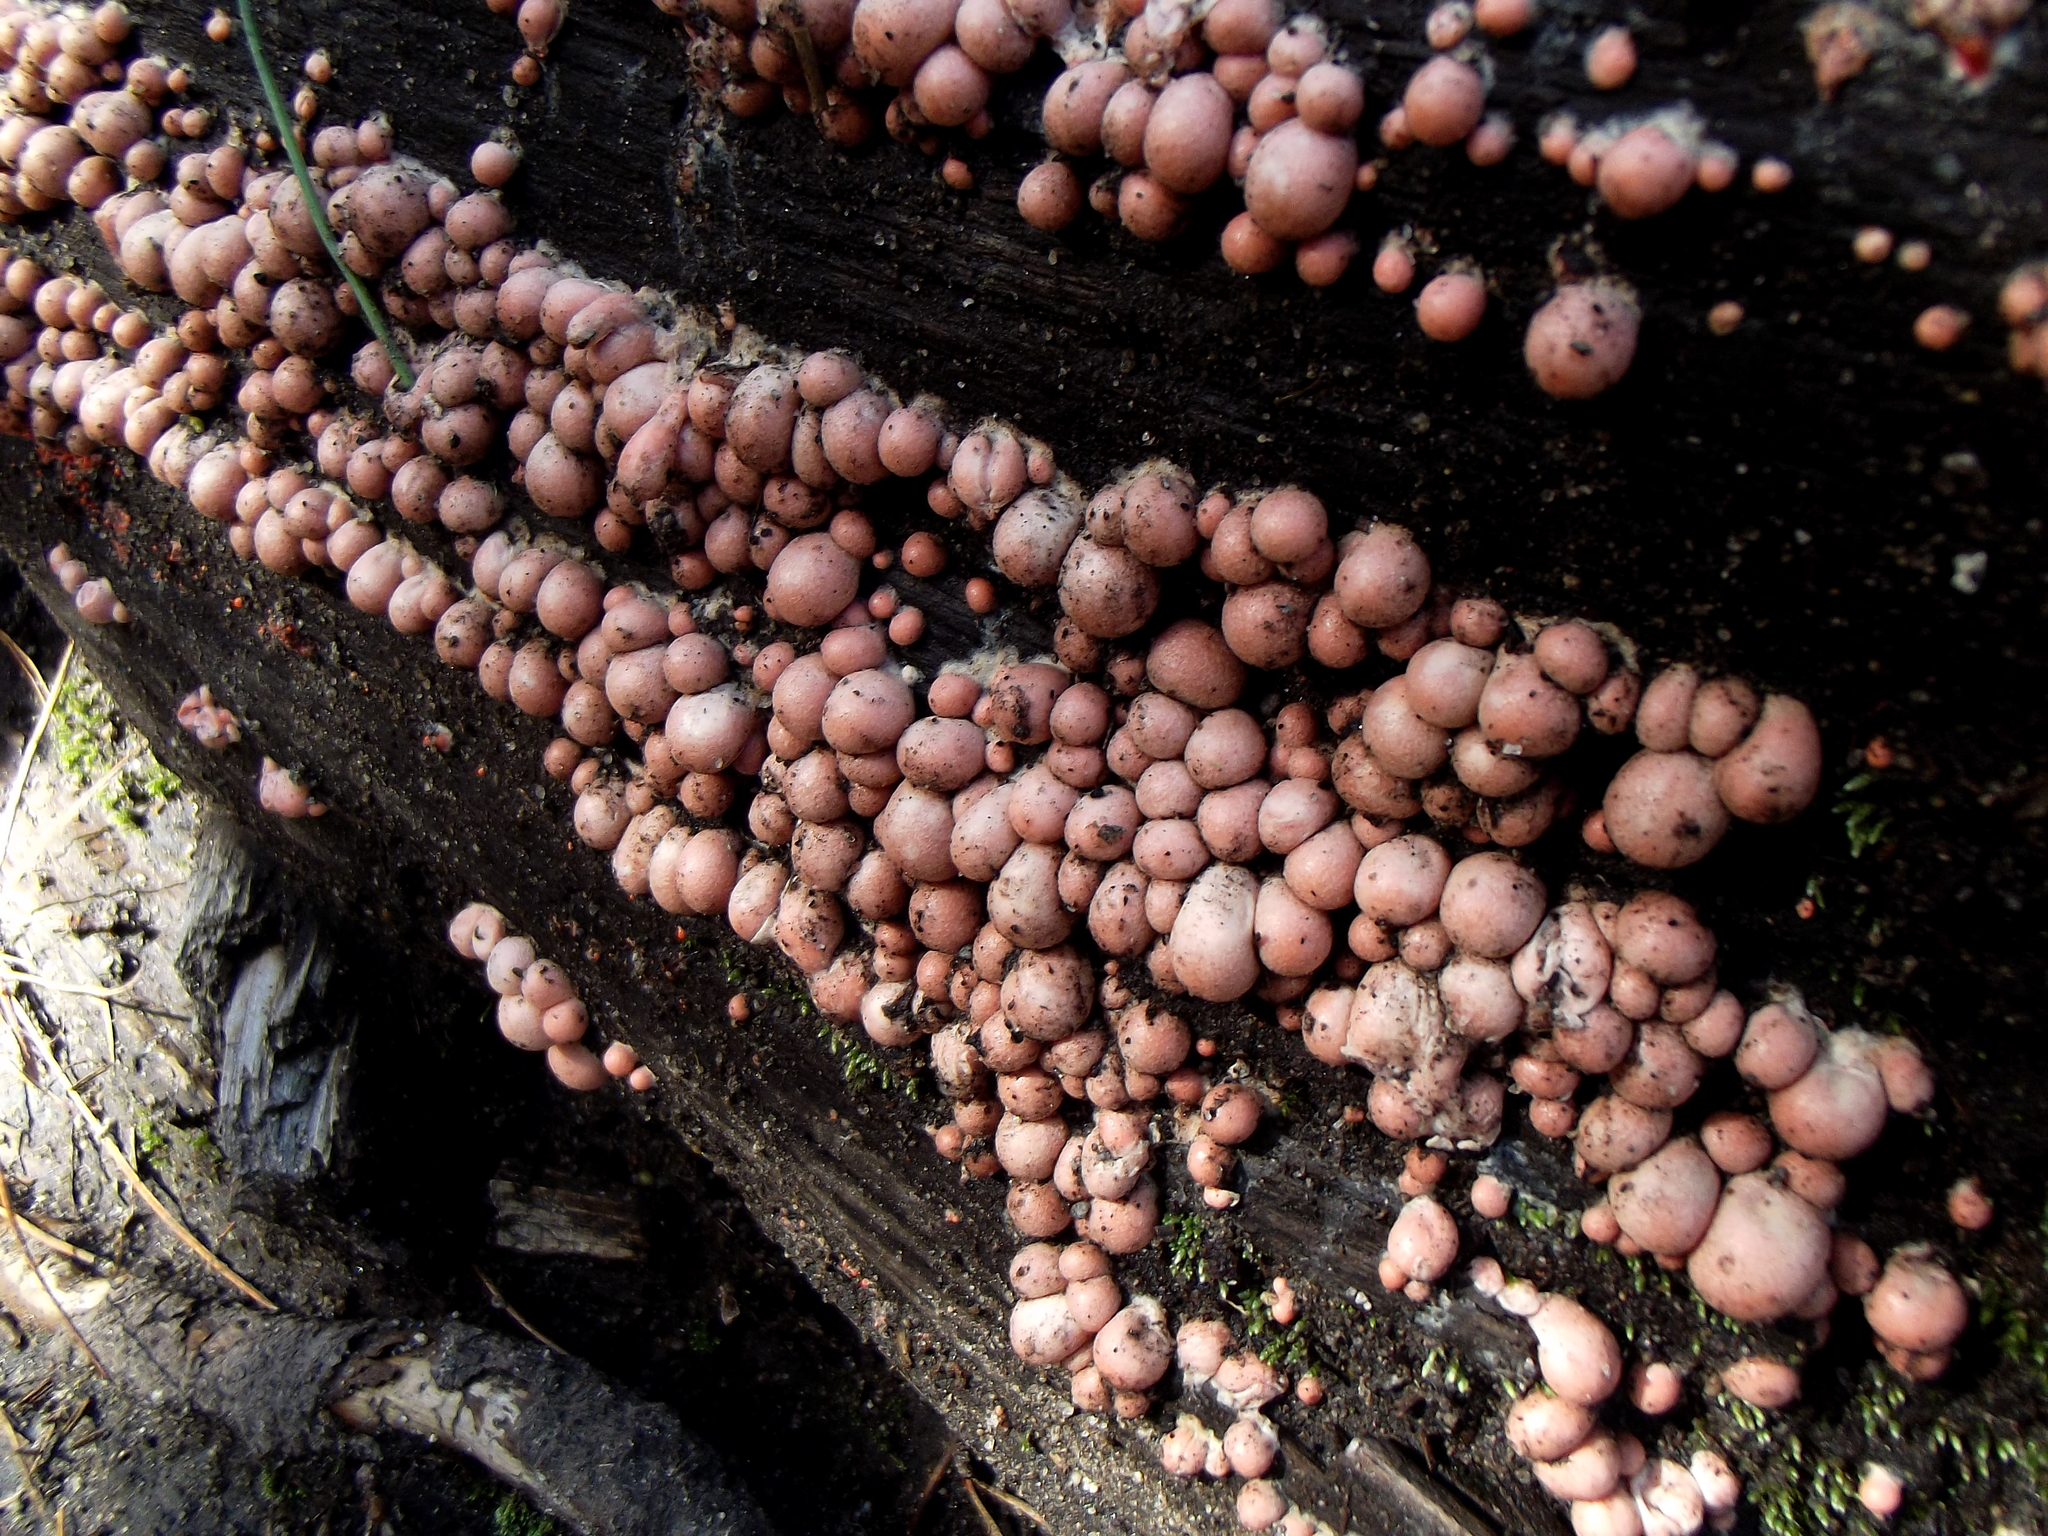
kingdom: Protozoa
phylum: Mycetozoa
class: Myxomycetes
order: Cribrariales
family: Tubiferaceae
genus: Lycogala
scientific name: Lycogala epidendrum
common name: Wolf's milk
